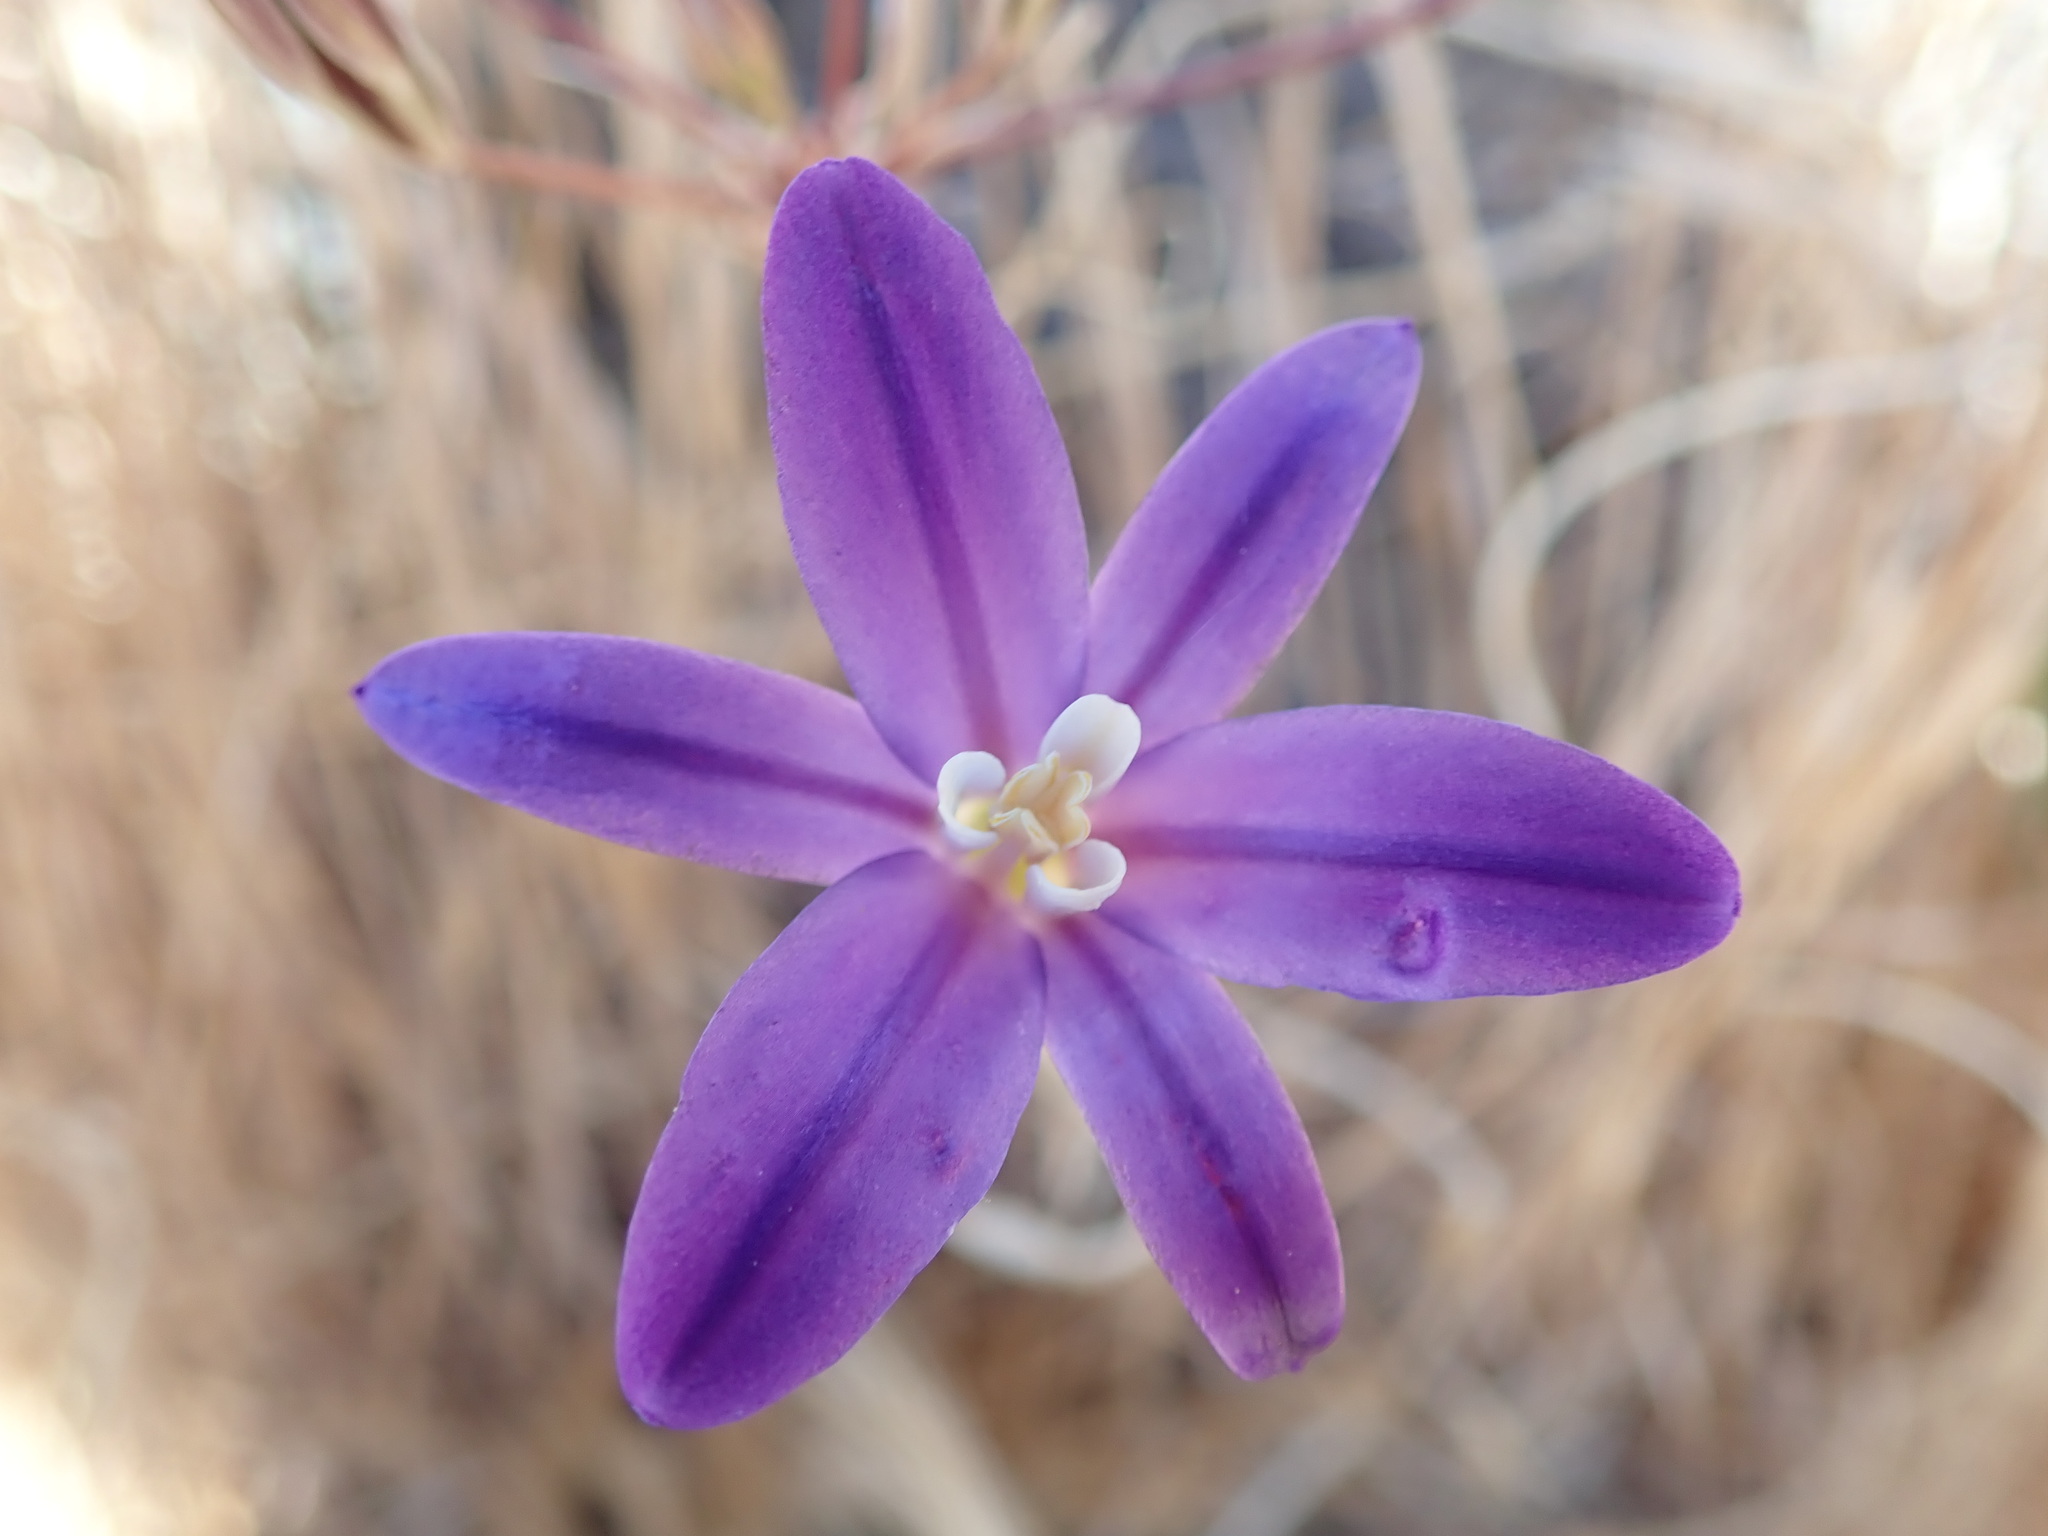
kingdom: Plantae
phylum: Tracheophyta
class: Liliopsida
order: Asparagales
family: Asparagaceae
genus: Brodiaea
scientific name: Brodiaea coronaria
